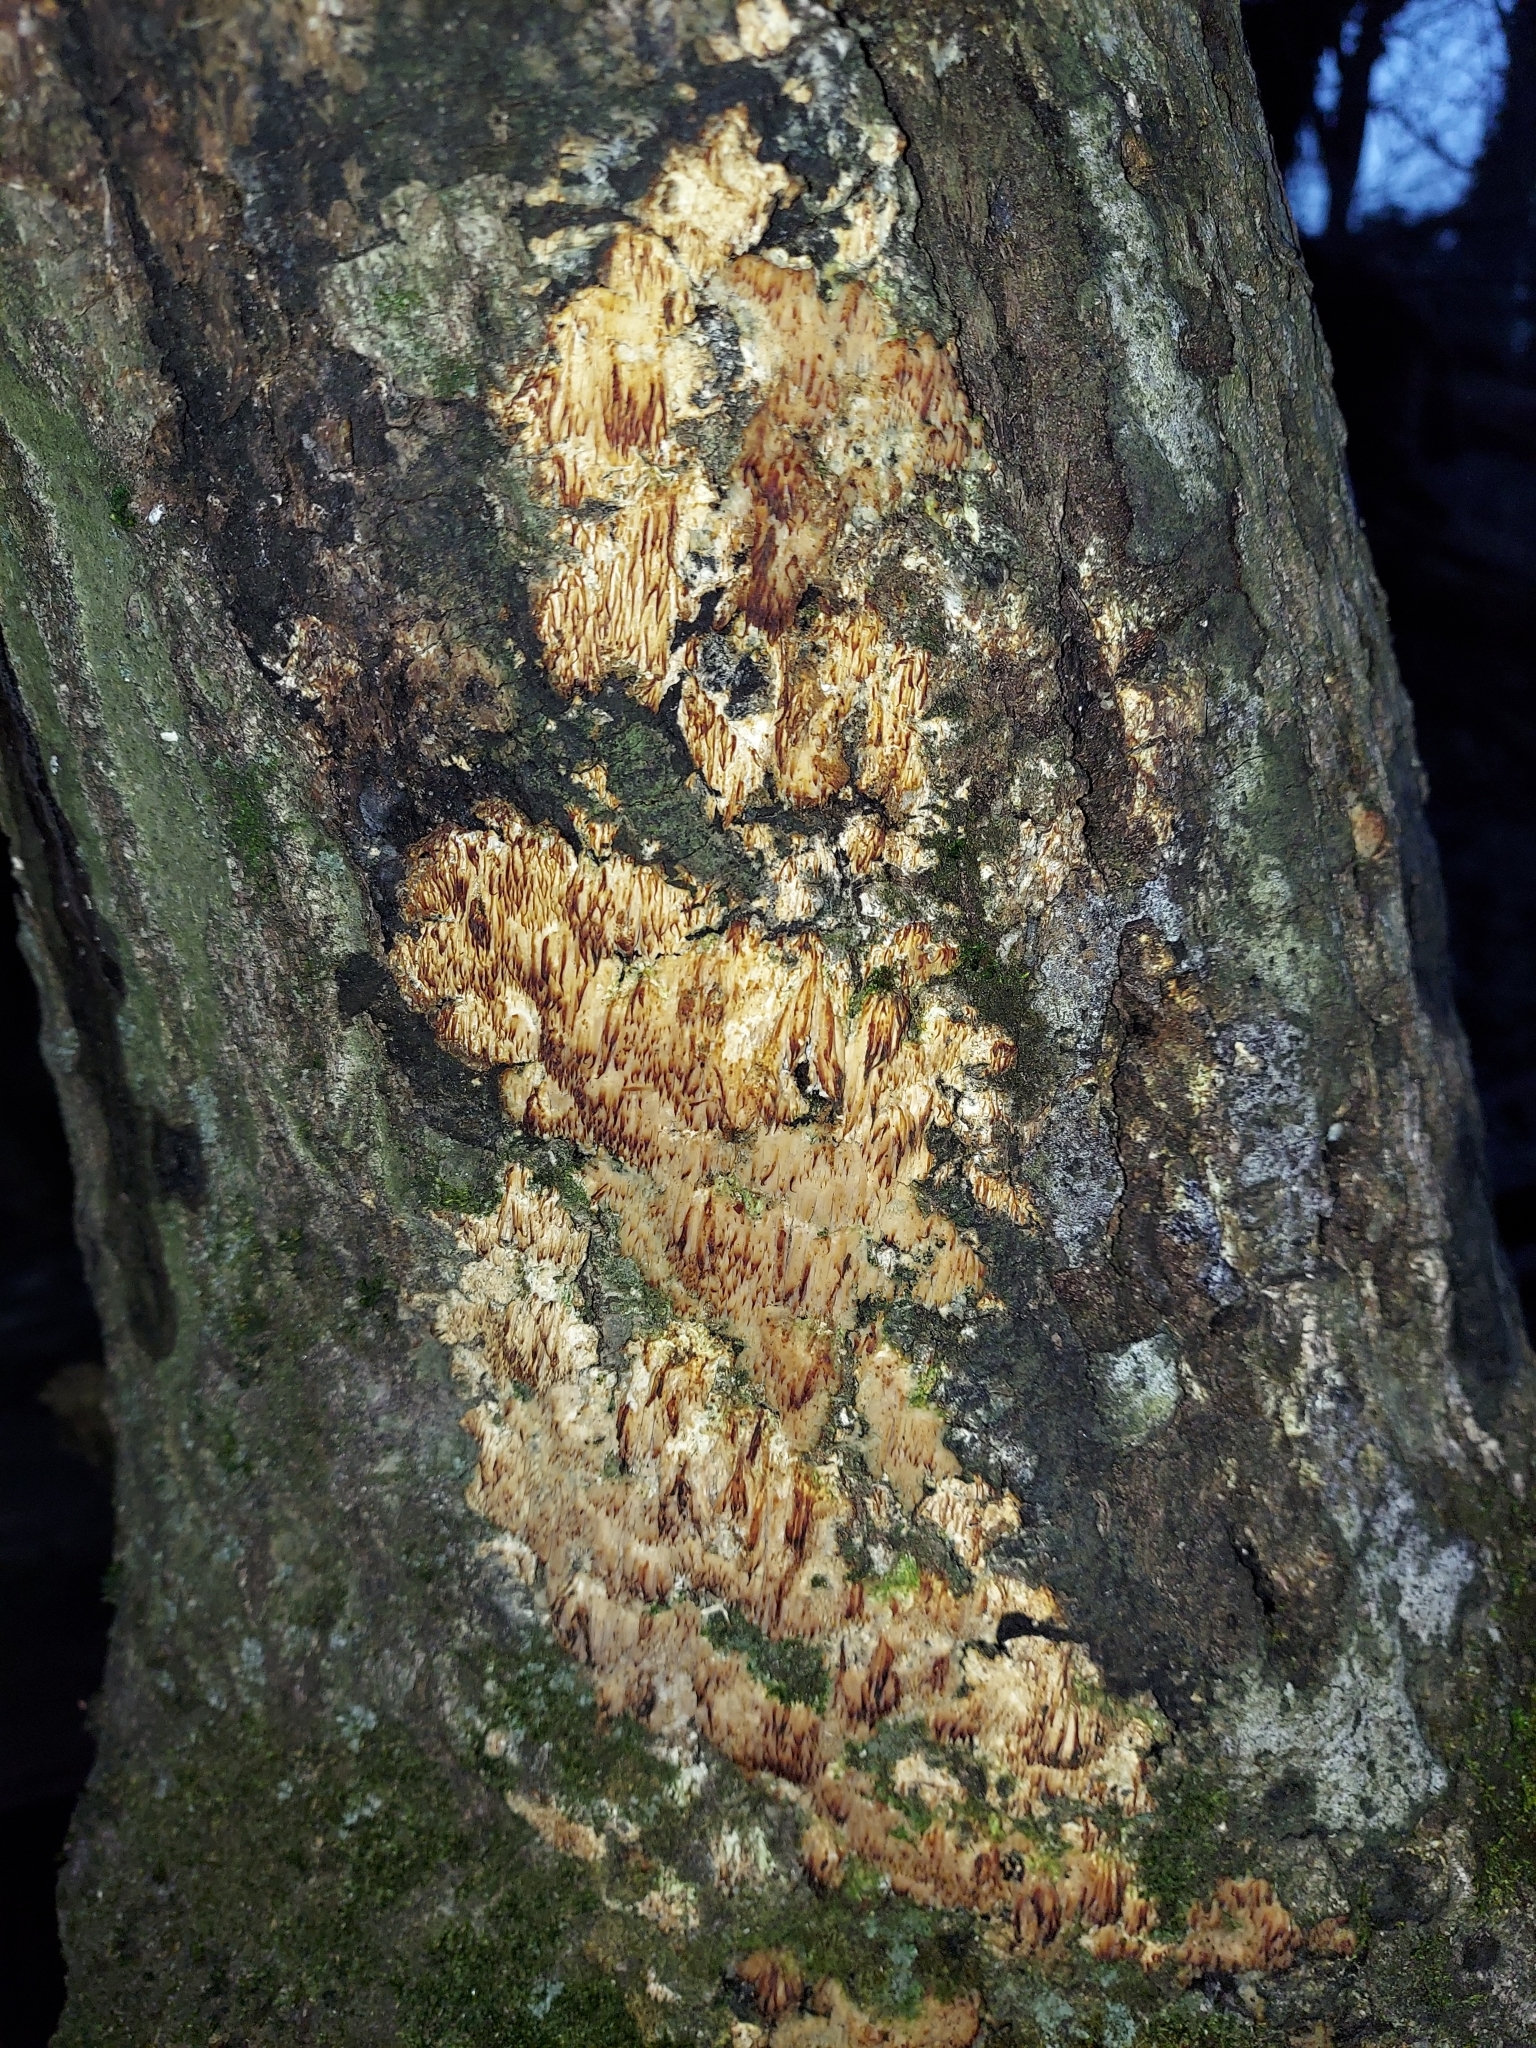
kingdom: Fungi
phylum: Basidiomycota
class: Agaricomycetes
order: Agaricales
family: Radulomycetaceae
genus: Radulomyces
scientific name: Radulomyces copelandii
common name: Asian beauty
